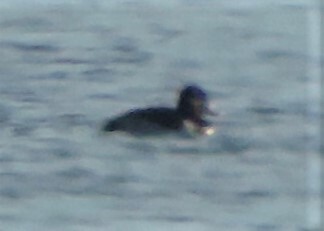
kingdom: Animalia
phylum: Chordata
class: Aves
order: Anseriformes
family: Anatidae
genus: Aythya
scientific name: Aythya collaris
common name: Ring-necked duck
